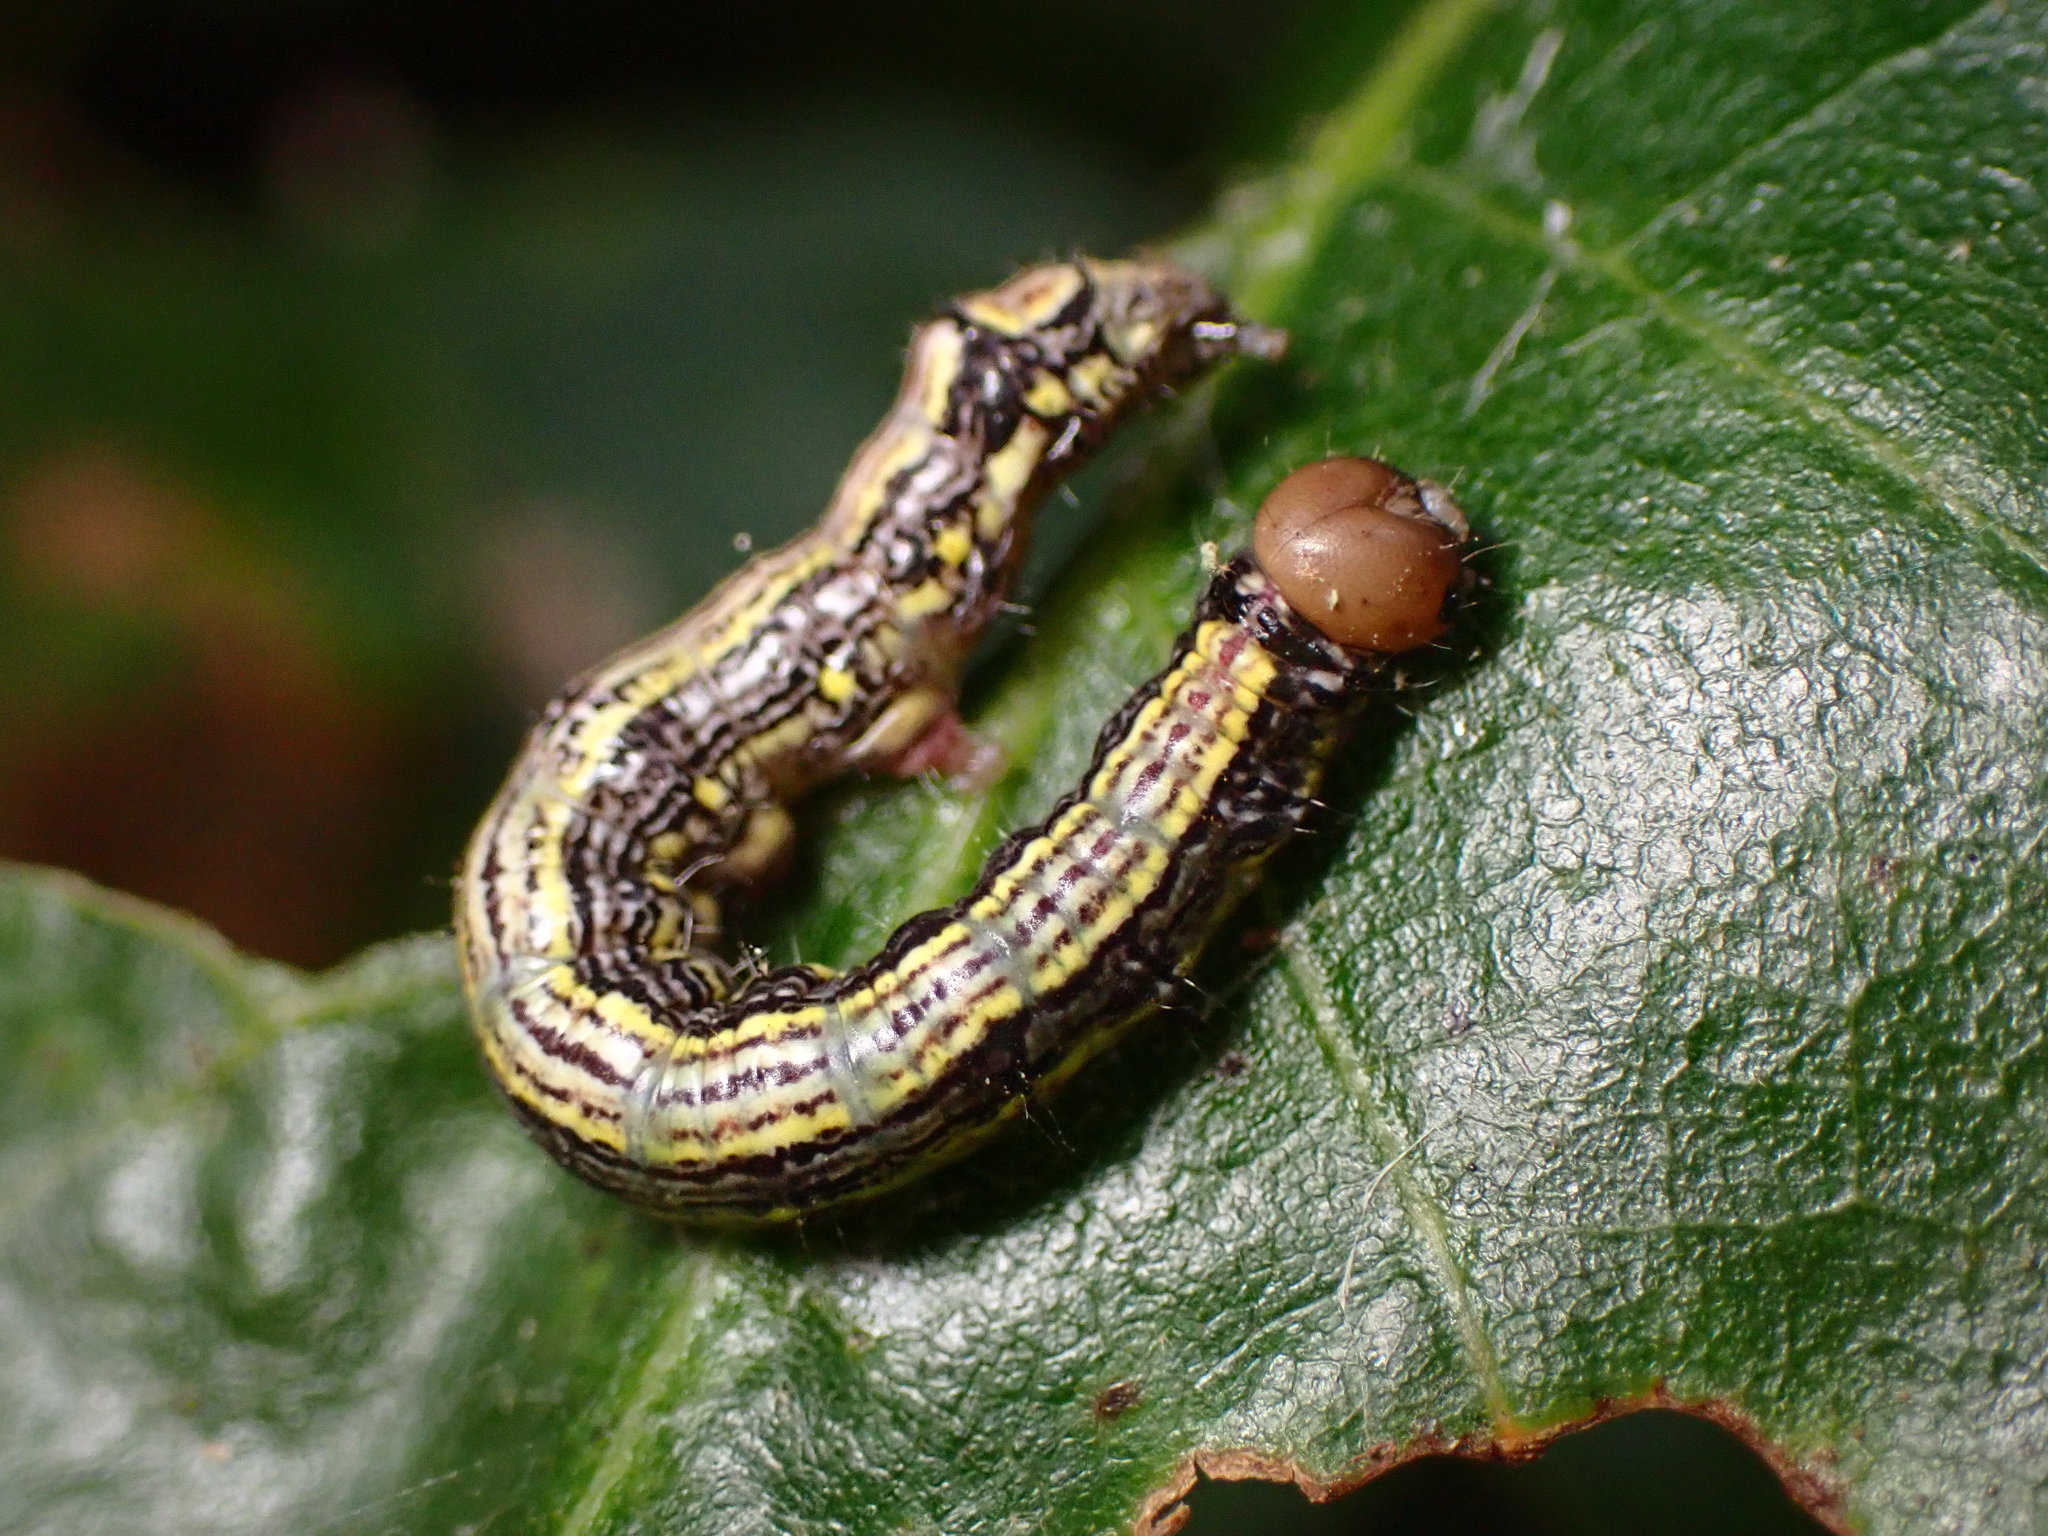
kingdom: Animalia
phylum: Arthropoda
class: Insecta
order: Lepidoptera
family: Notodontidae
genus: Phryganidia
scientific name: Phryganidia californica
